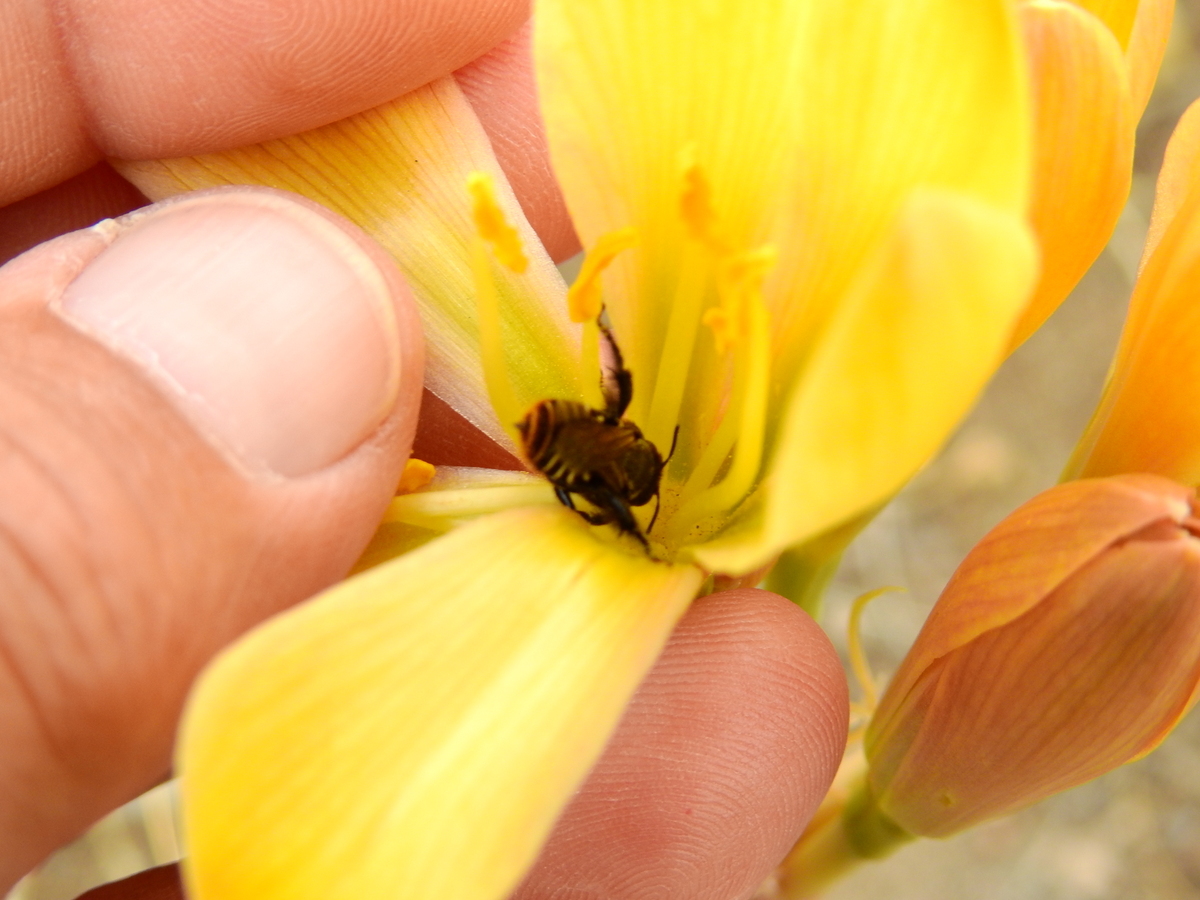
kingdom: Animalia
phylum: Arthropoda
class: Insecta
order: Hymenoptera
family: Megachilidae
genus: Lithurgopsis
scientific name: Lithurgopsis rufiventris
